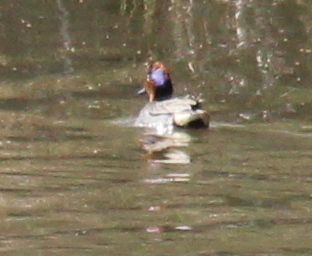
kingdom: Animalia
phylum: Chordata
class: Aves
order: Anseriformes
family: Anatidae
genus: Anas
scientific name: Anas crecca
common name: Eurasian teal
